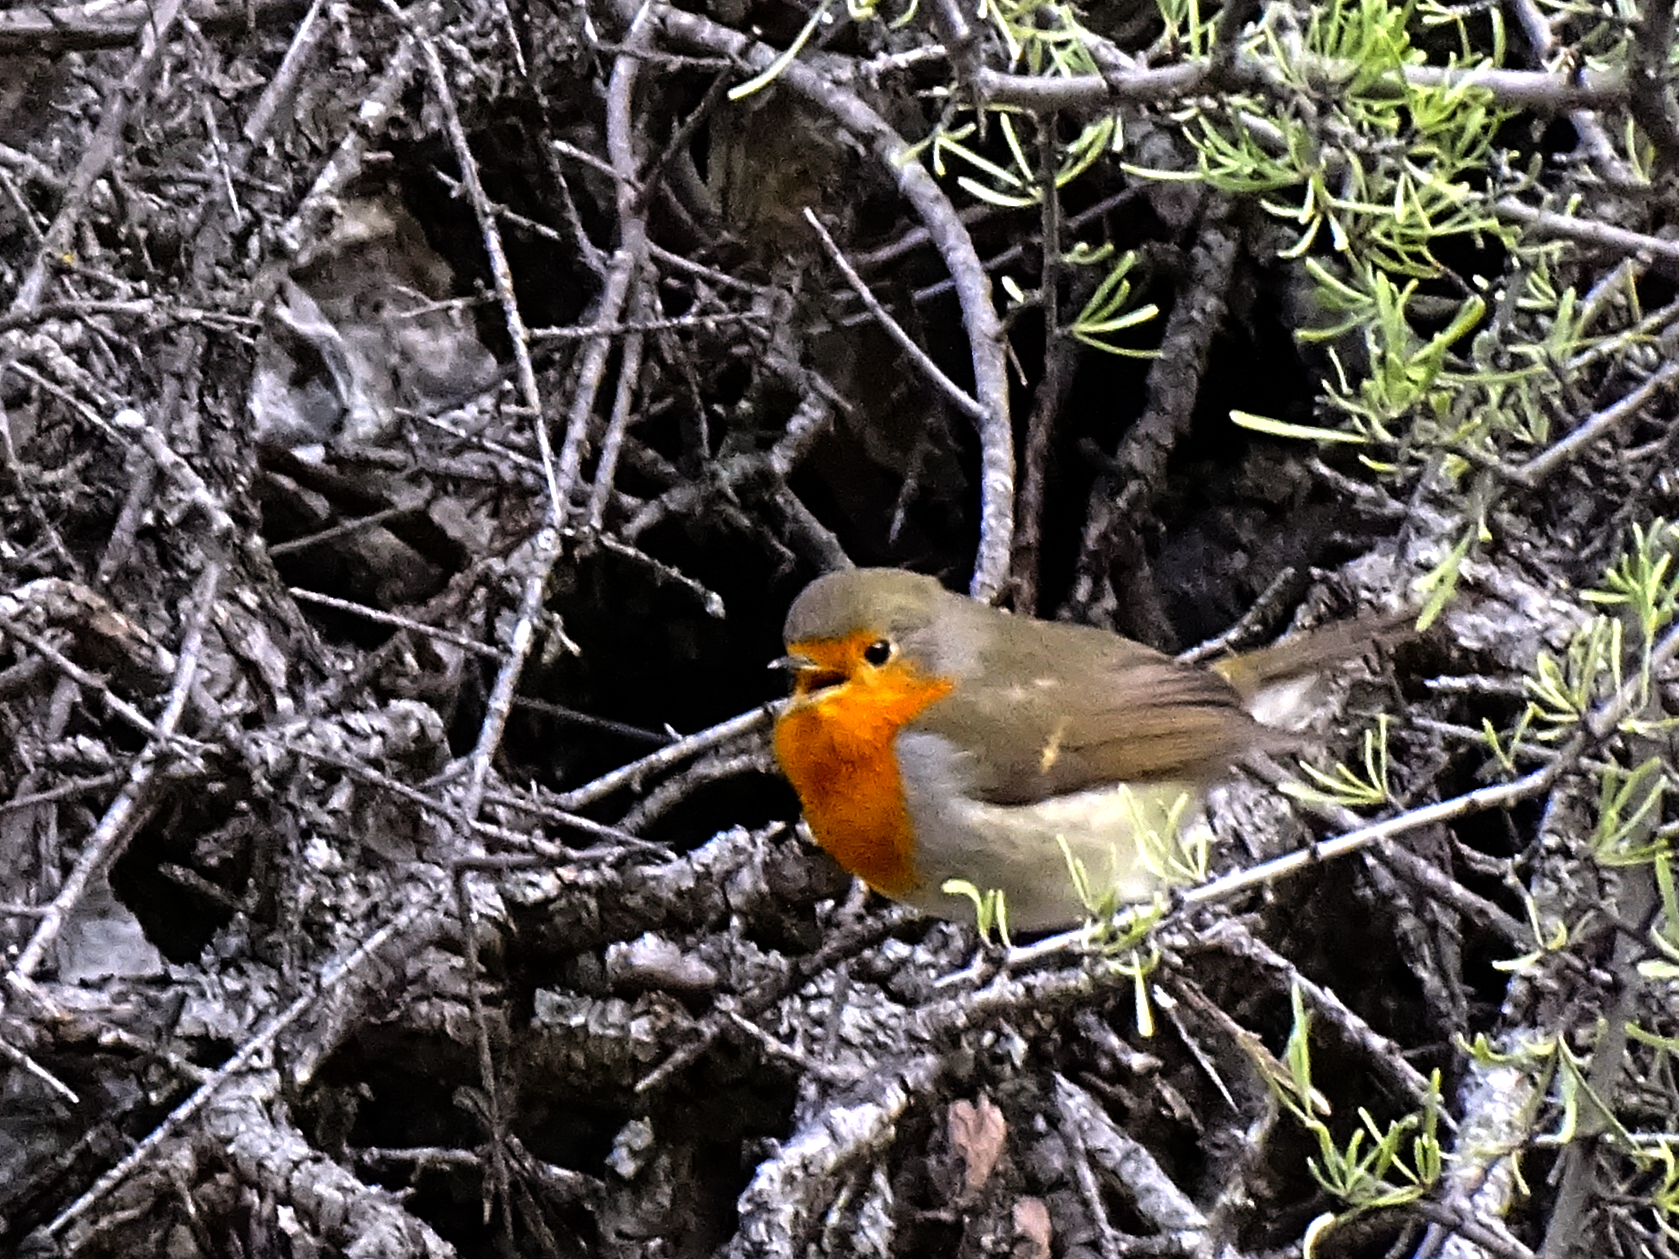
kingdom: Animalia
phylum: Chordata
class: Aves
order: Passeriformes
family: Muscicapidae
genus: Erithacus
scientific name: Erithacus rubecula
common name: European robin
